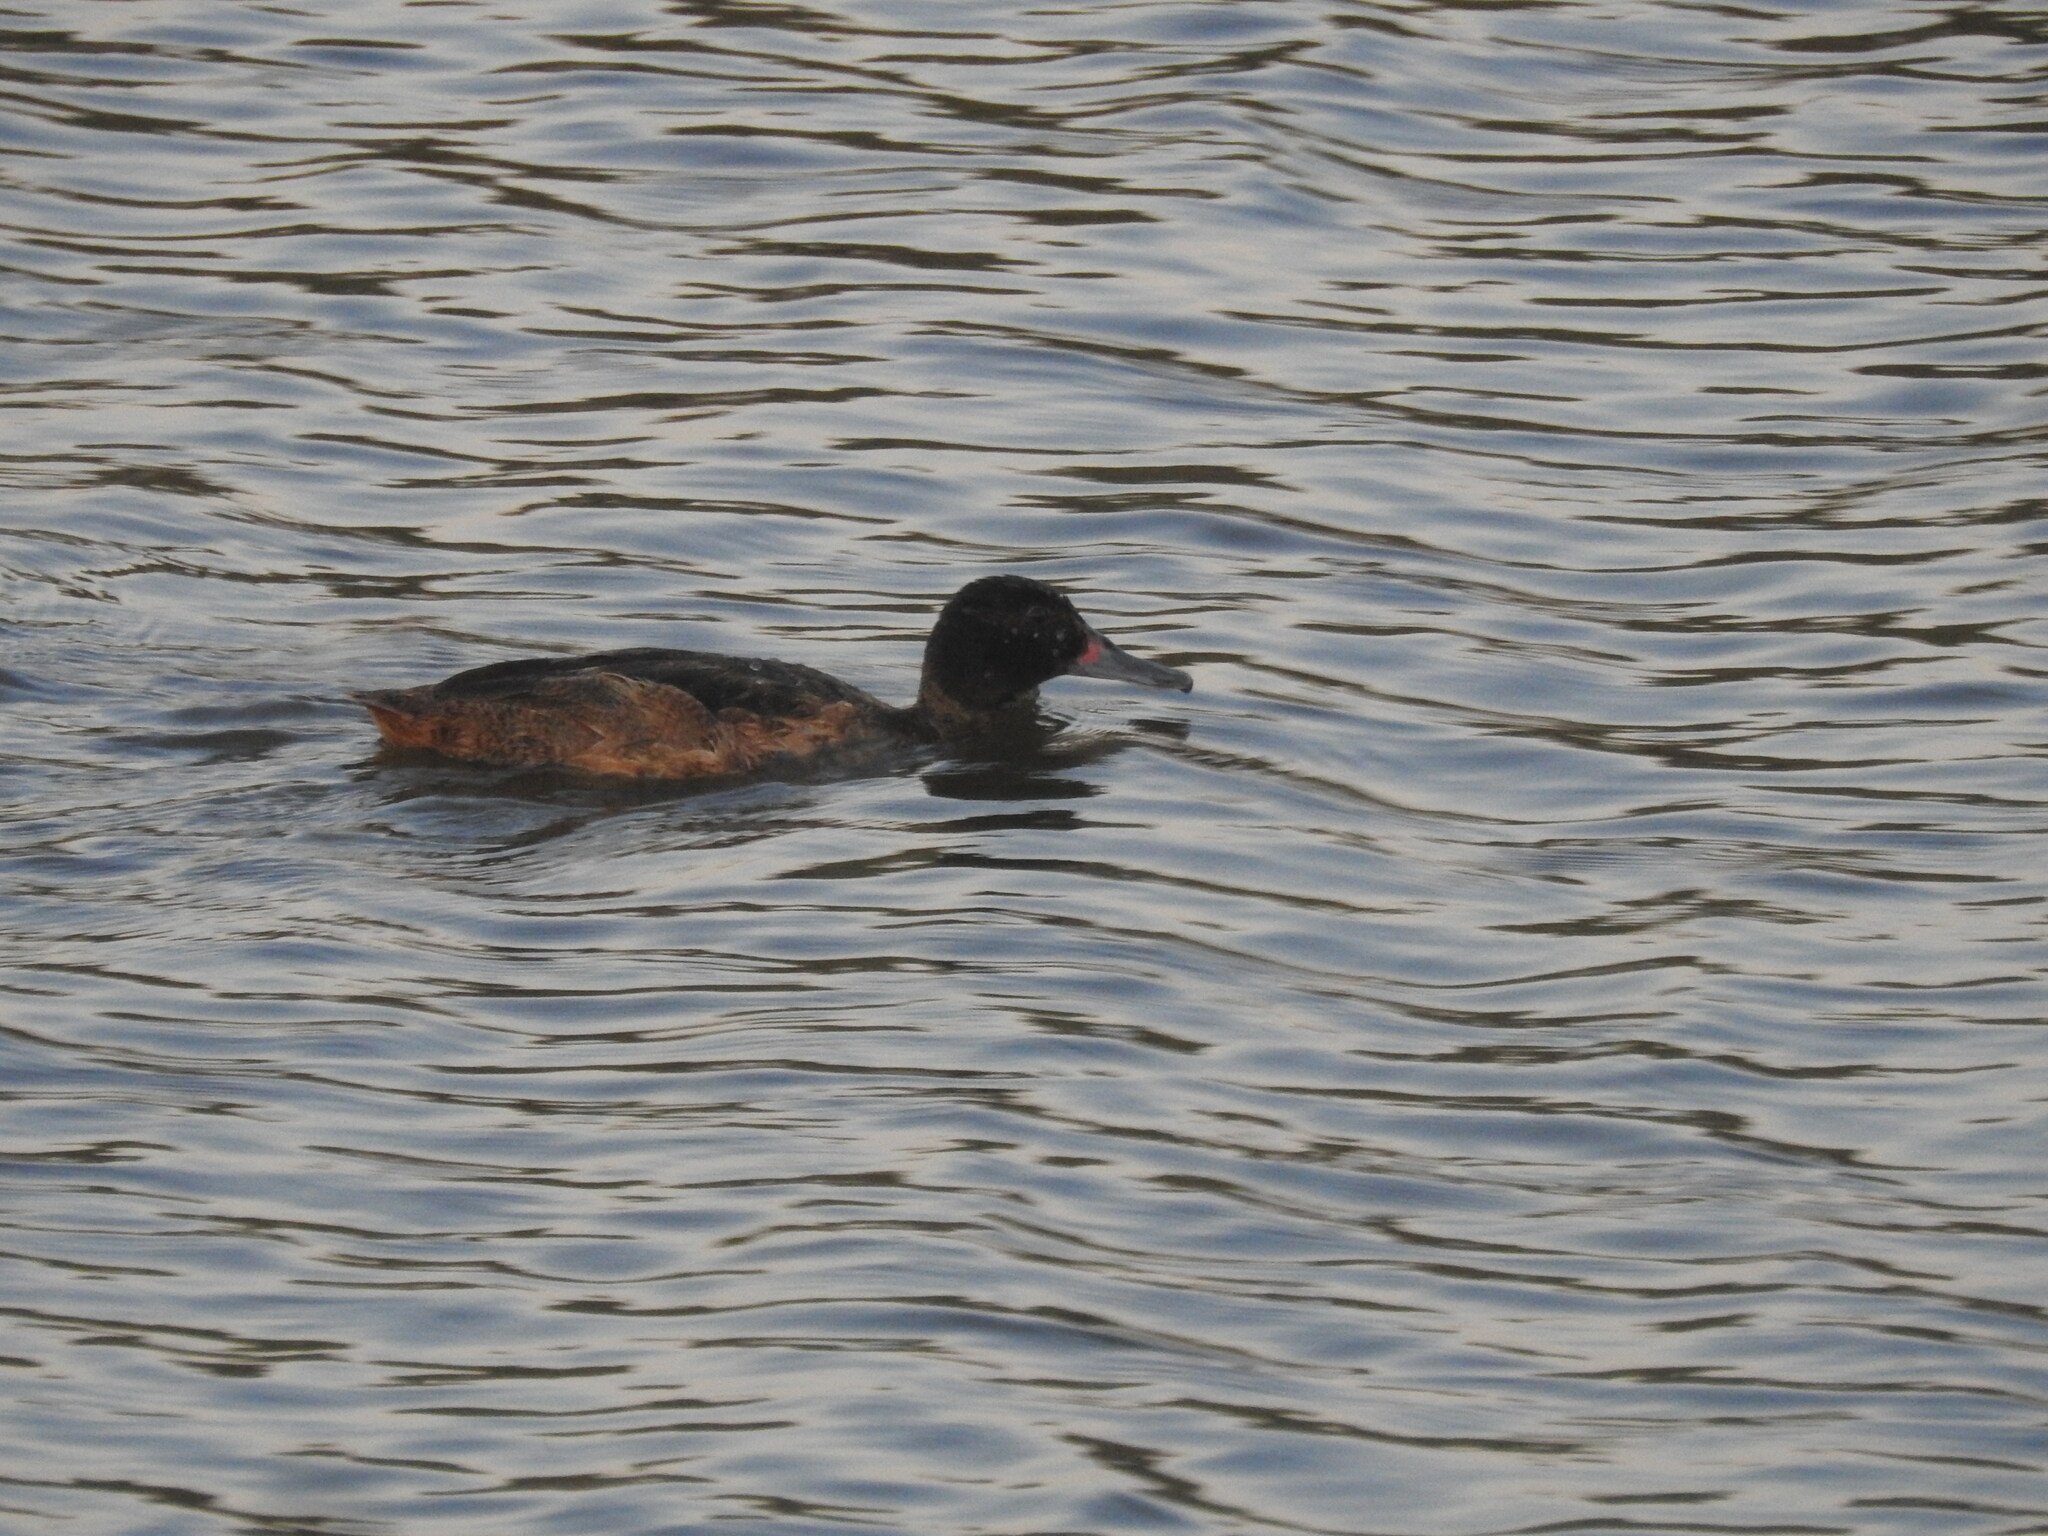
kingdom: Animalia
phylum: Chordata
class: Aves
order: Anseriformes
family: Anatidae
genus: Heteronetta
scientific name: Heteronetta atricapilla
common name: Black-headed duck
